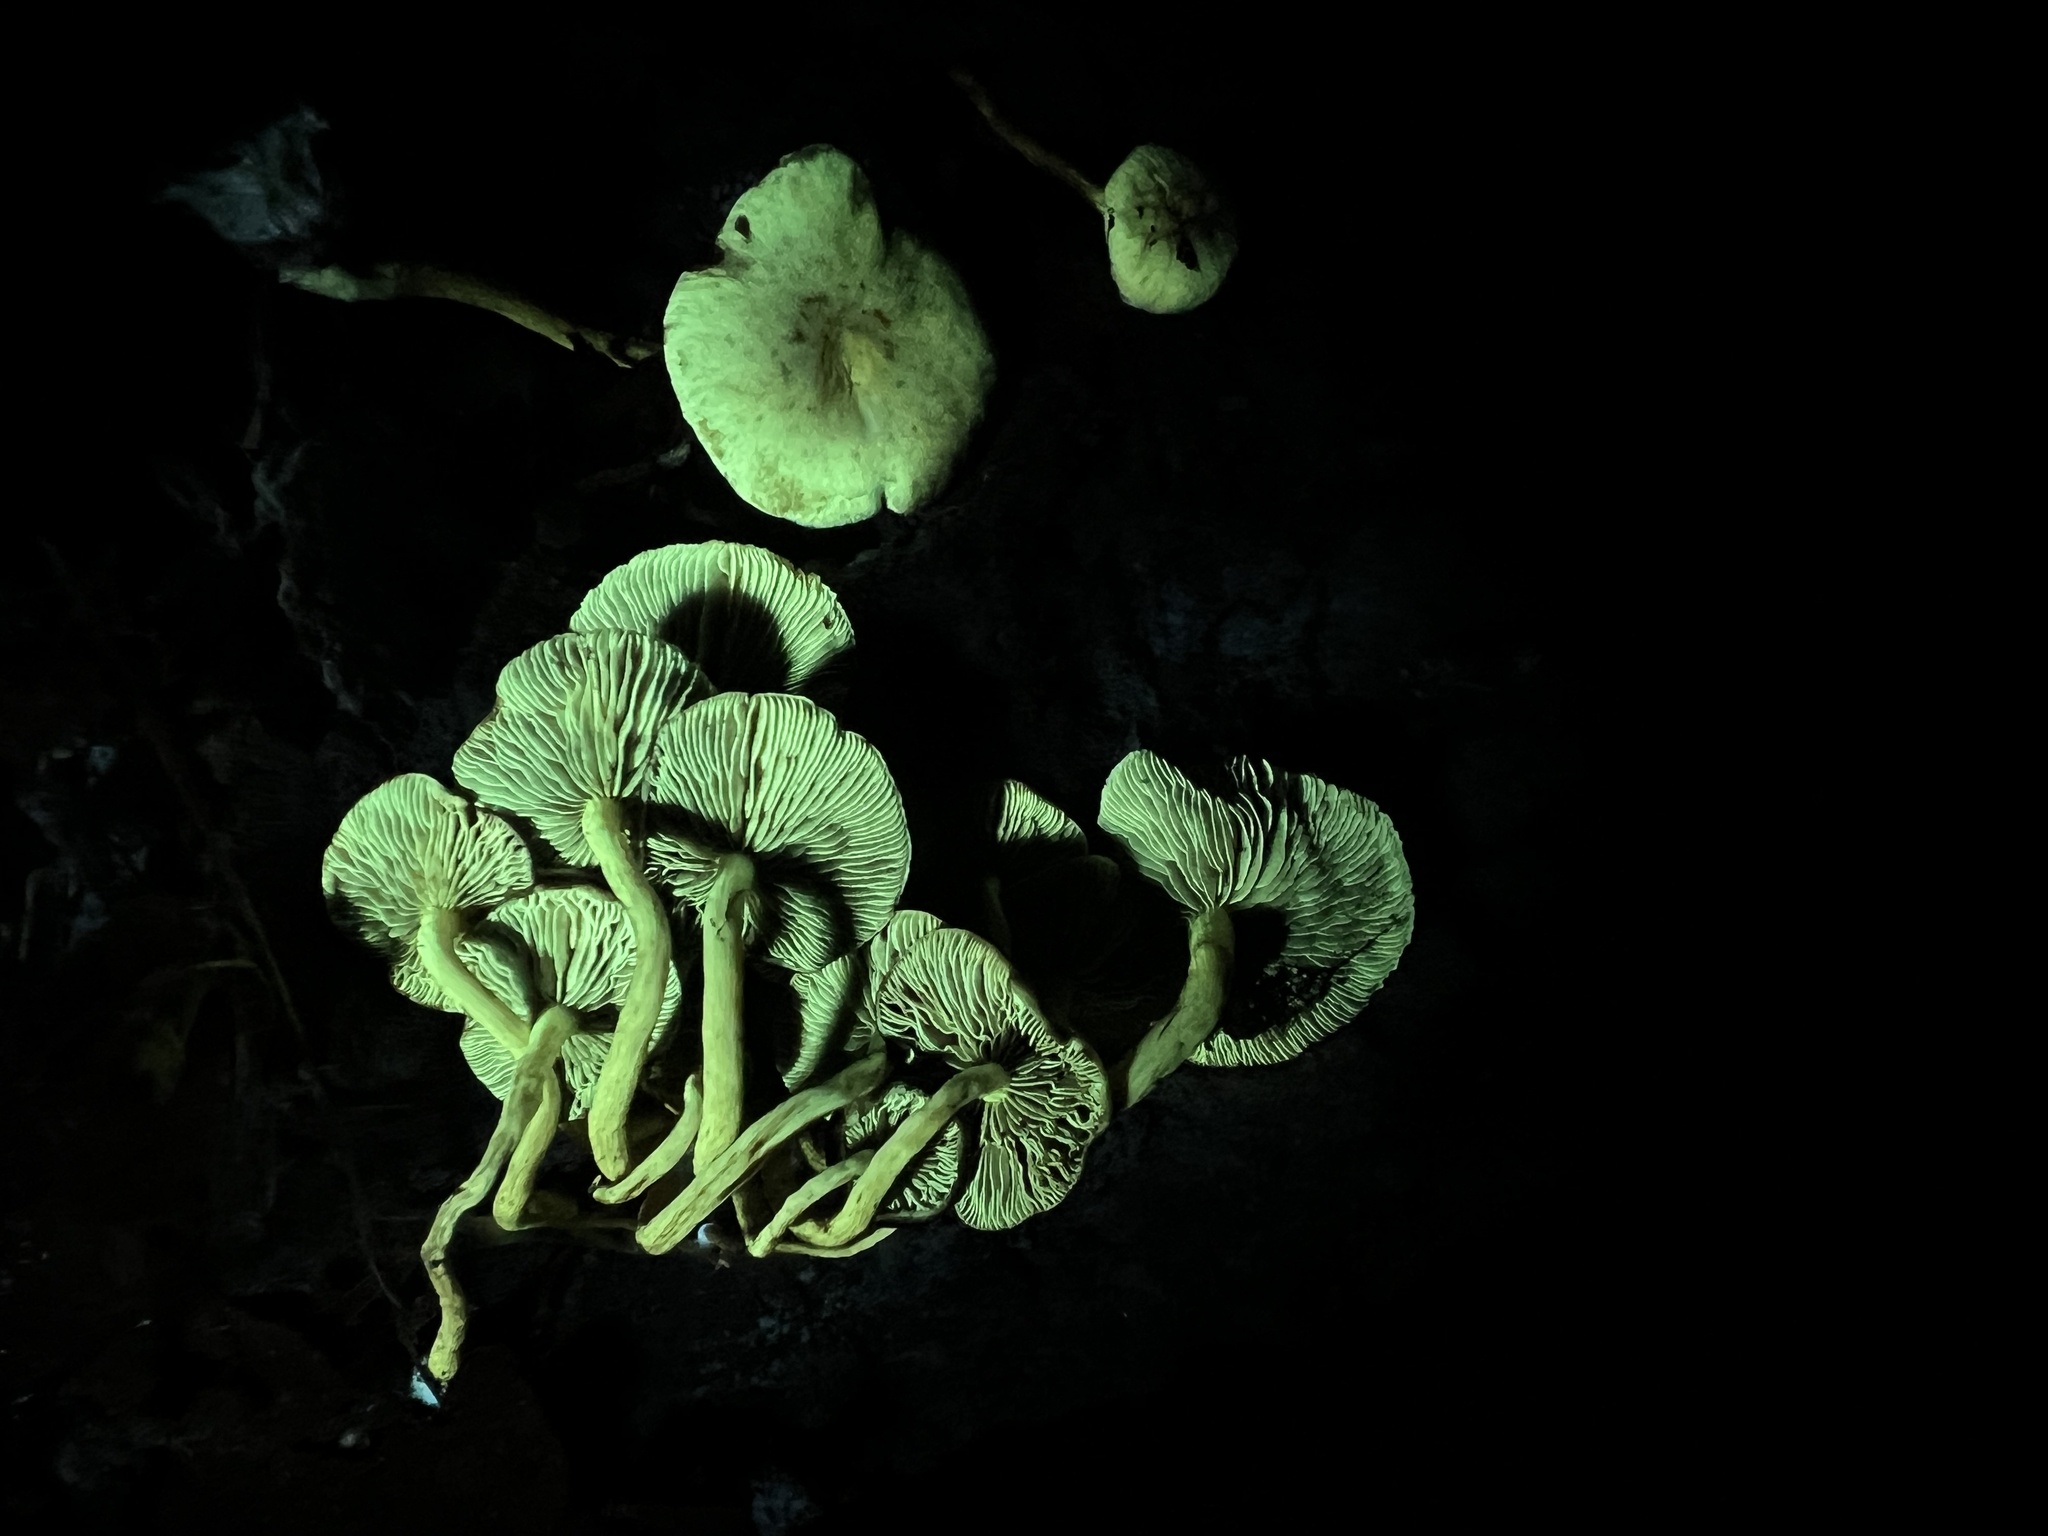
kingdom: Fungi
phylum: Basidiomycota
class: Agaricomycetes
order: Agaricales
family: Strophariaceae
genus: Hypholoma
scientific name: Hypholoma fasciculare
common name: Sulphur tuft
